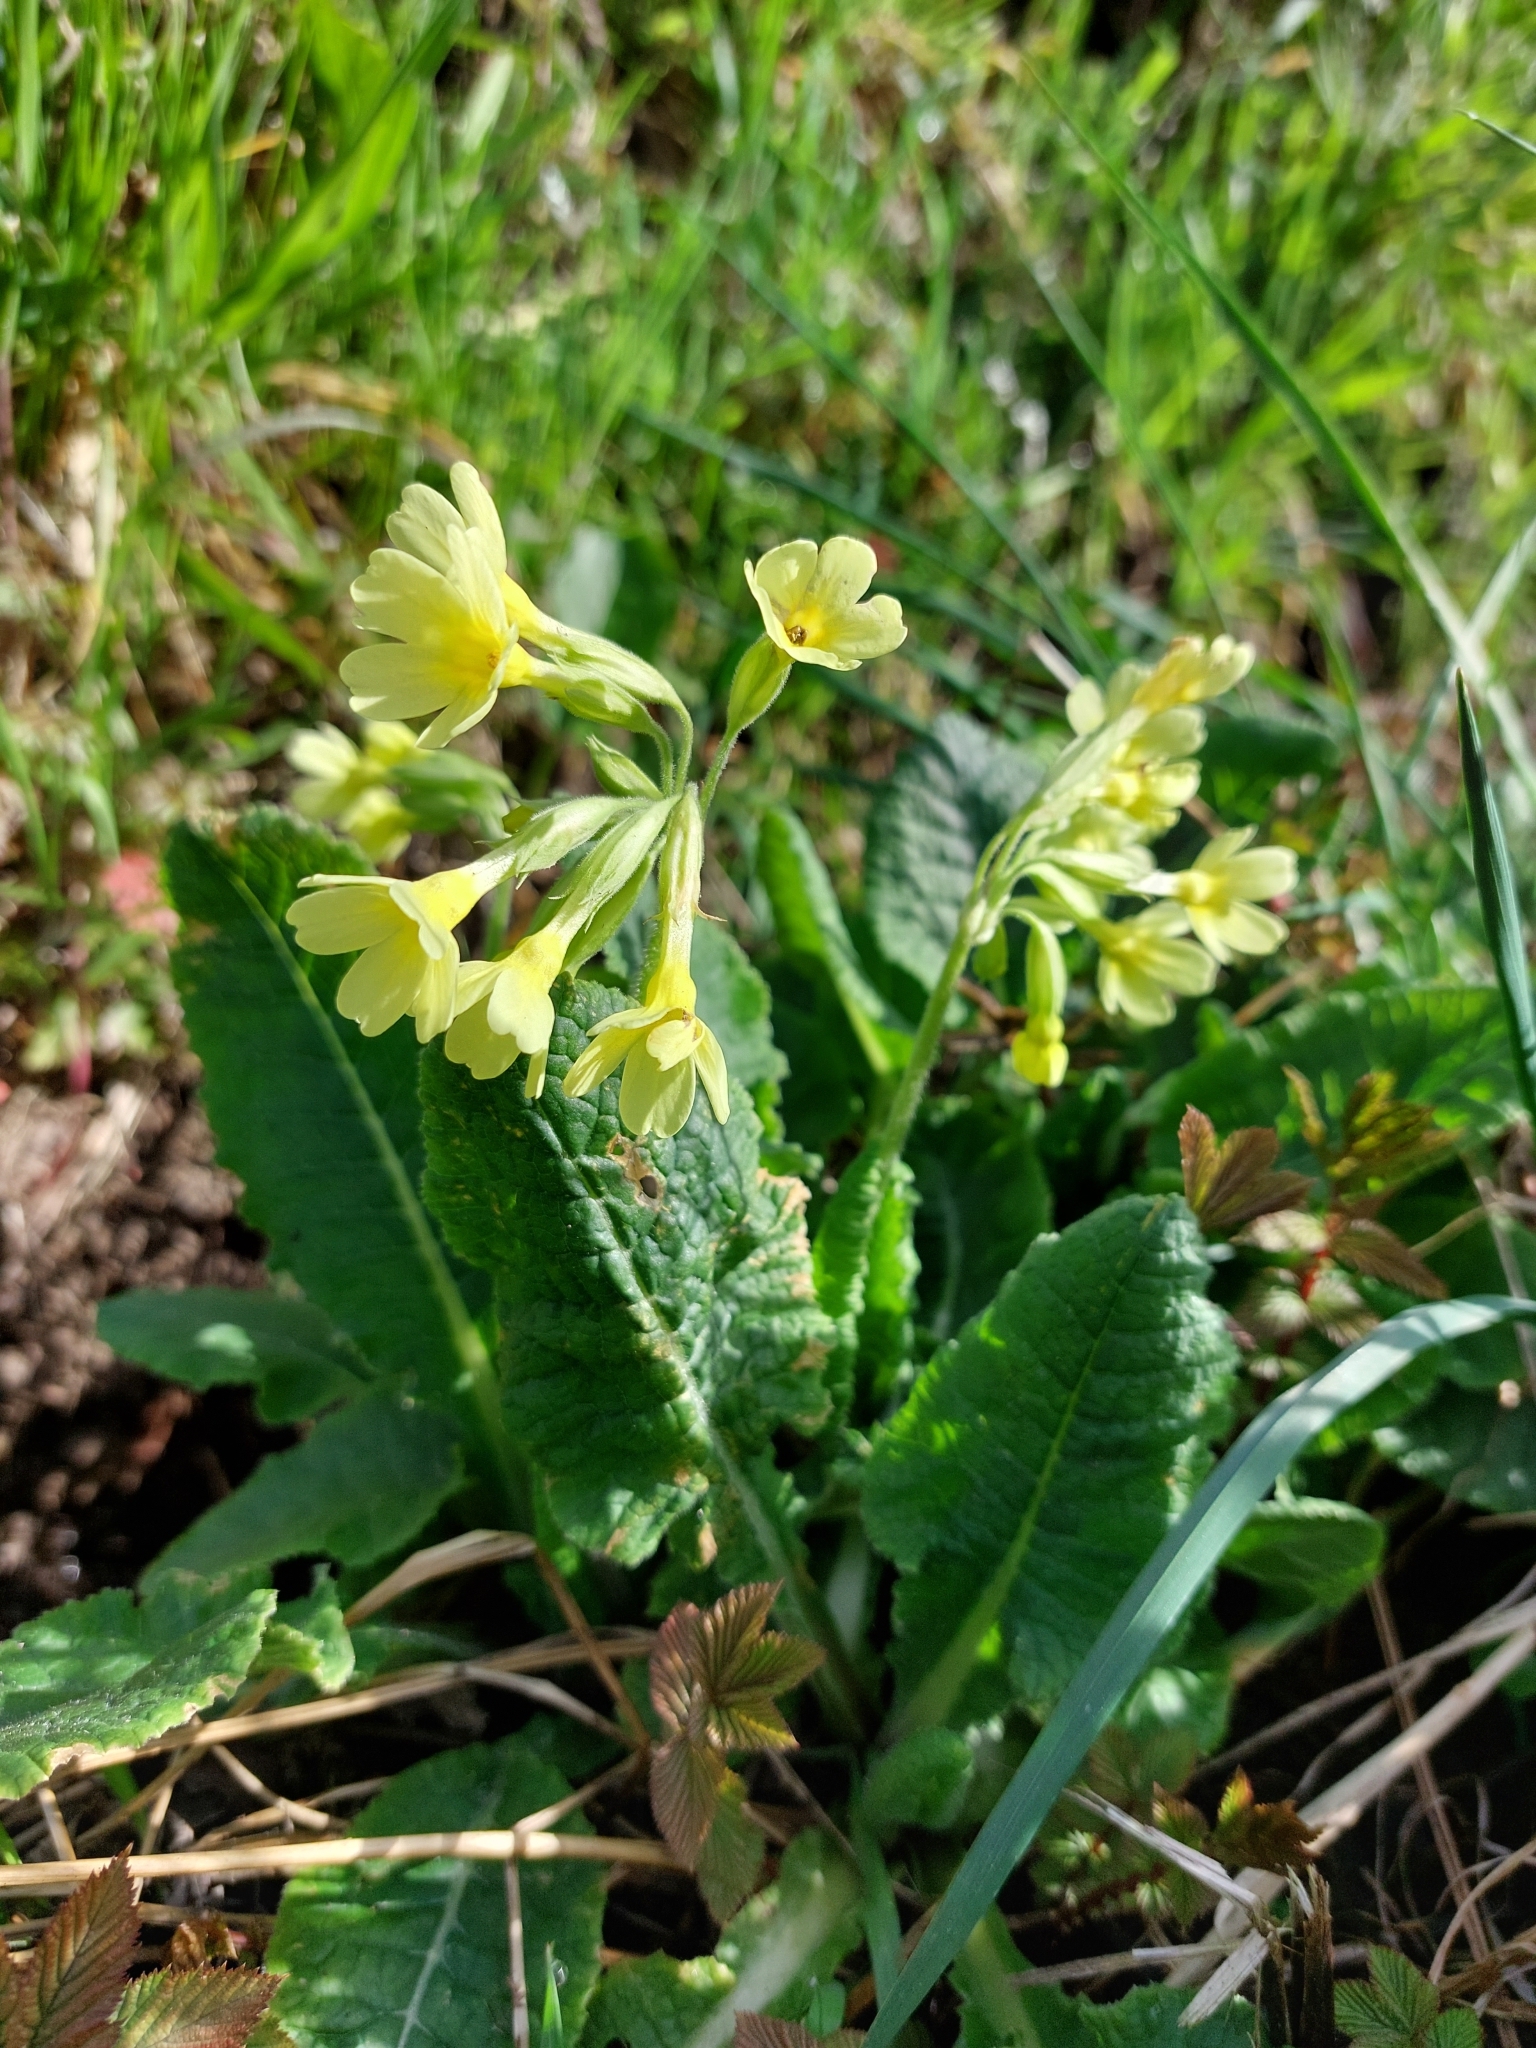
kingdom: Plantae
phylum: Tracheophyta
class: Magnoliopsida
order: Ericales
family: Primulaceae
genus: Primula
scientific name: Primula elatior
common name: Oxlip
